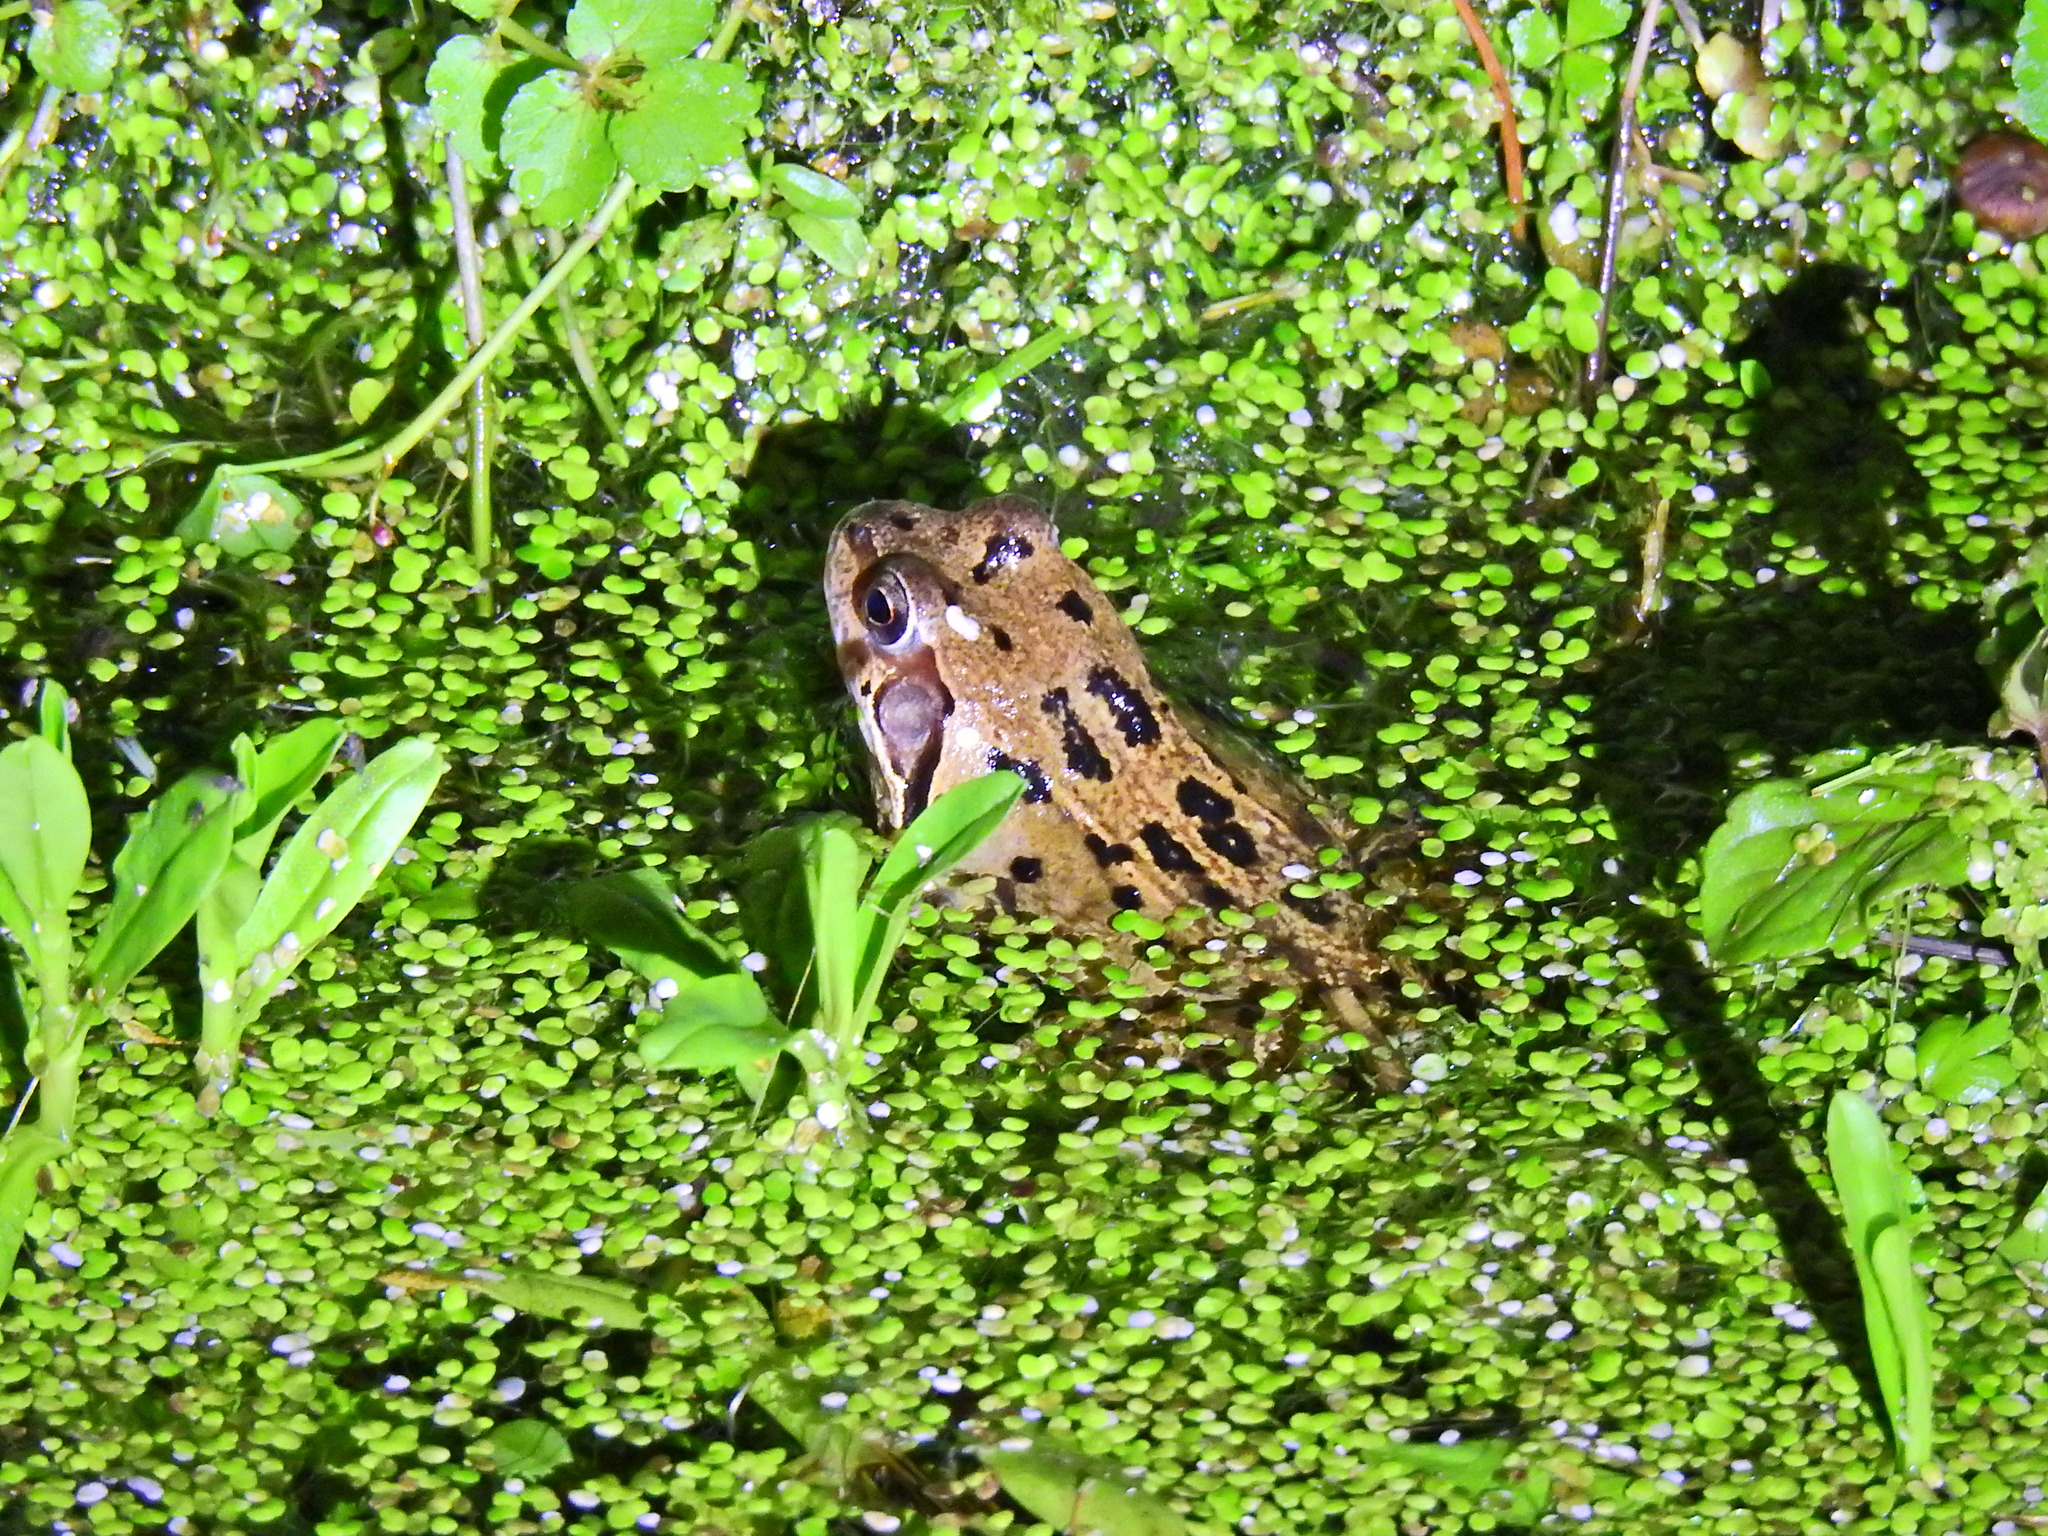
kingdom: Animalia
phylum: Chordata
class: Amphibia
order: Anura
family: Ranidae
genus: Rana
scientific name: Rana temporaria
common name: Common frog
